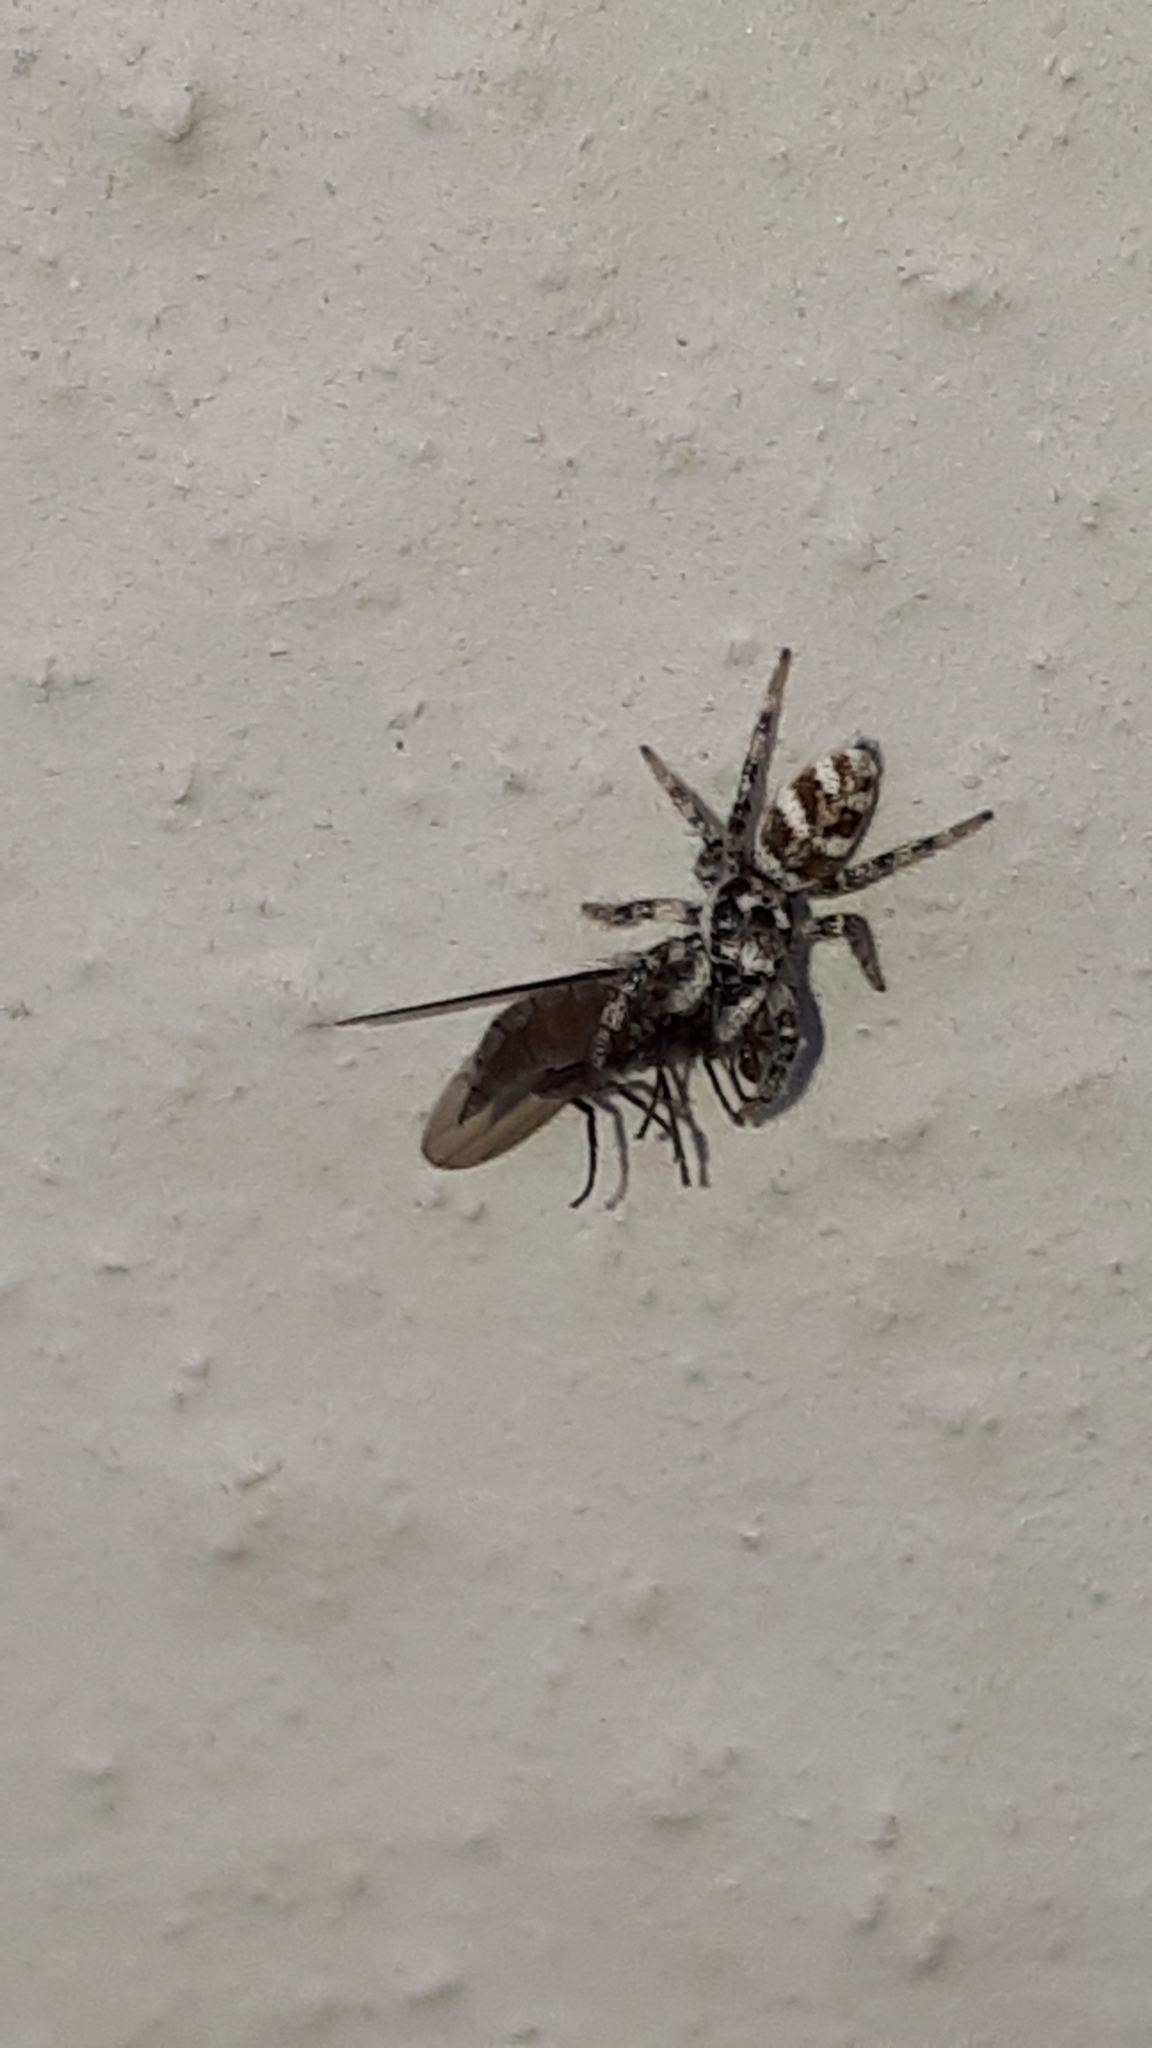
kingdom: Animalia
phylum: Arthropoda
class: Arachnida
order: Araneae
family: Salticidae
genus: Salticus
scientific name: Salticus scenicus
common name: Zebra jumper
